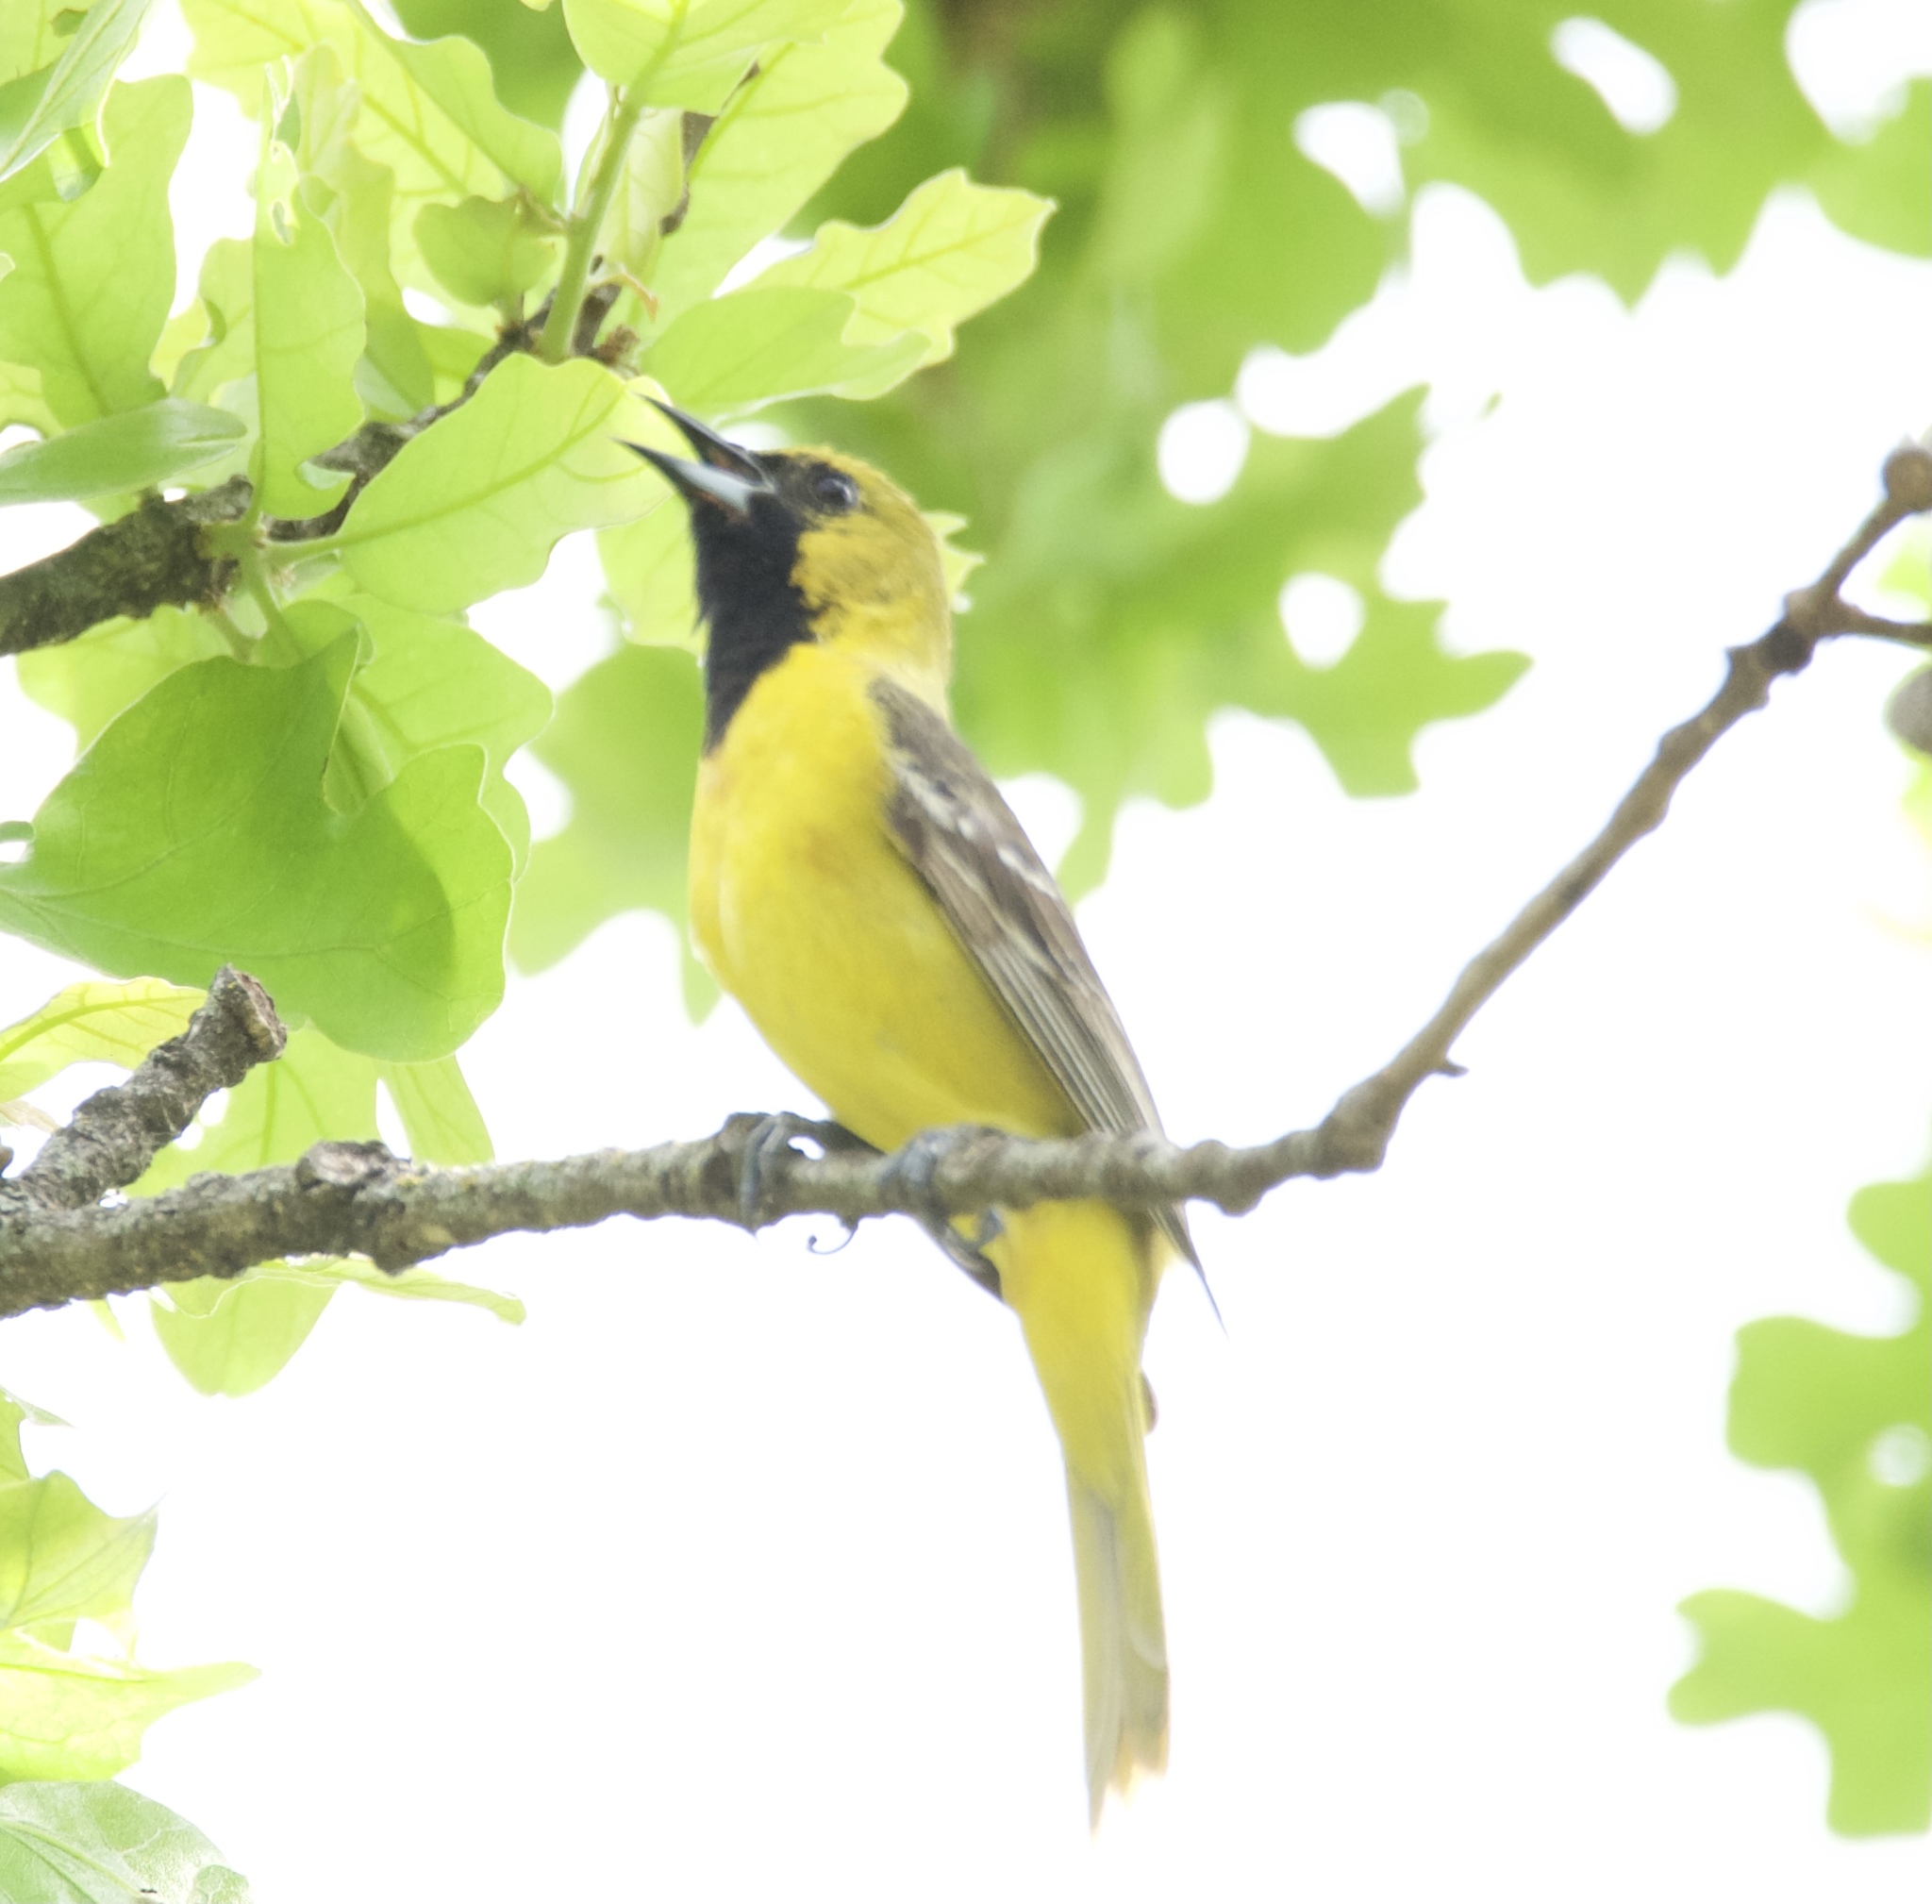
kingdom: Animalia
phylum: Chordata
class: Aves
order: Passeriformes
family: Icteridae
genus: Icterus
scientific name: Icterus spurius
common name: Orchard oriole
